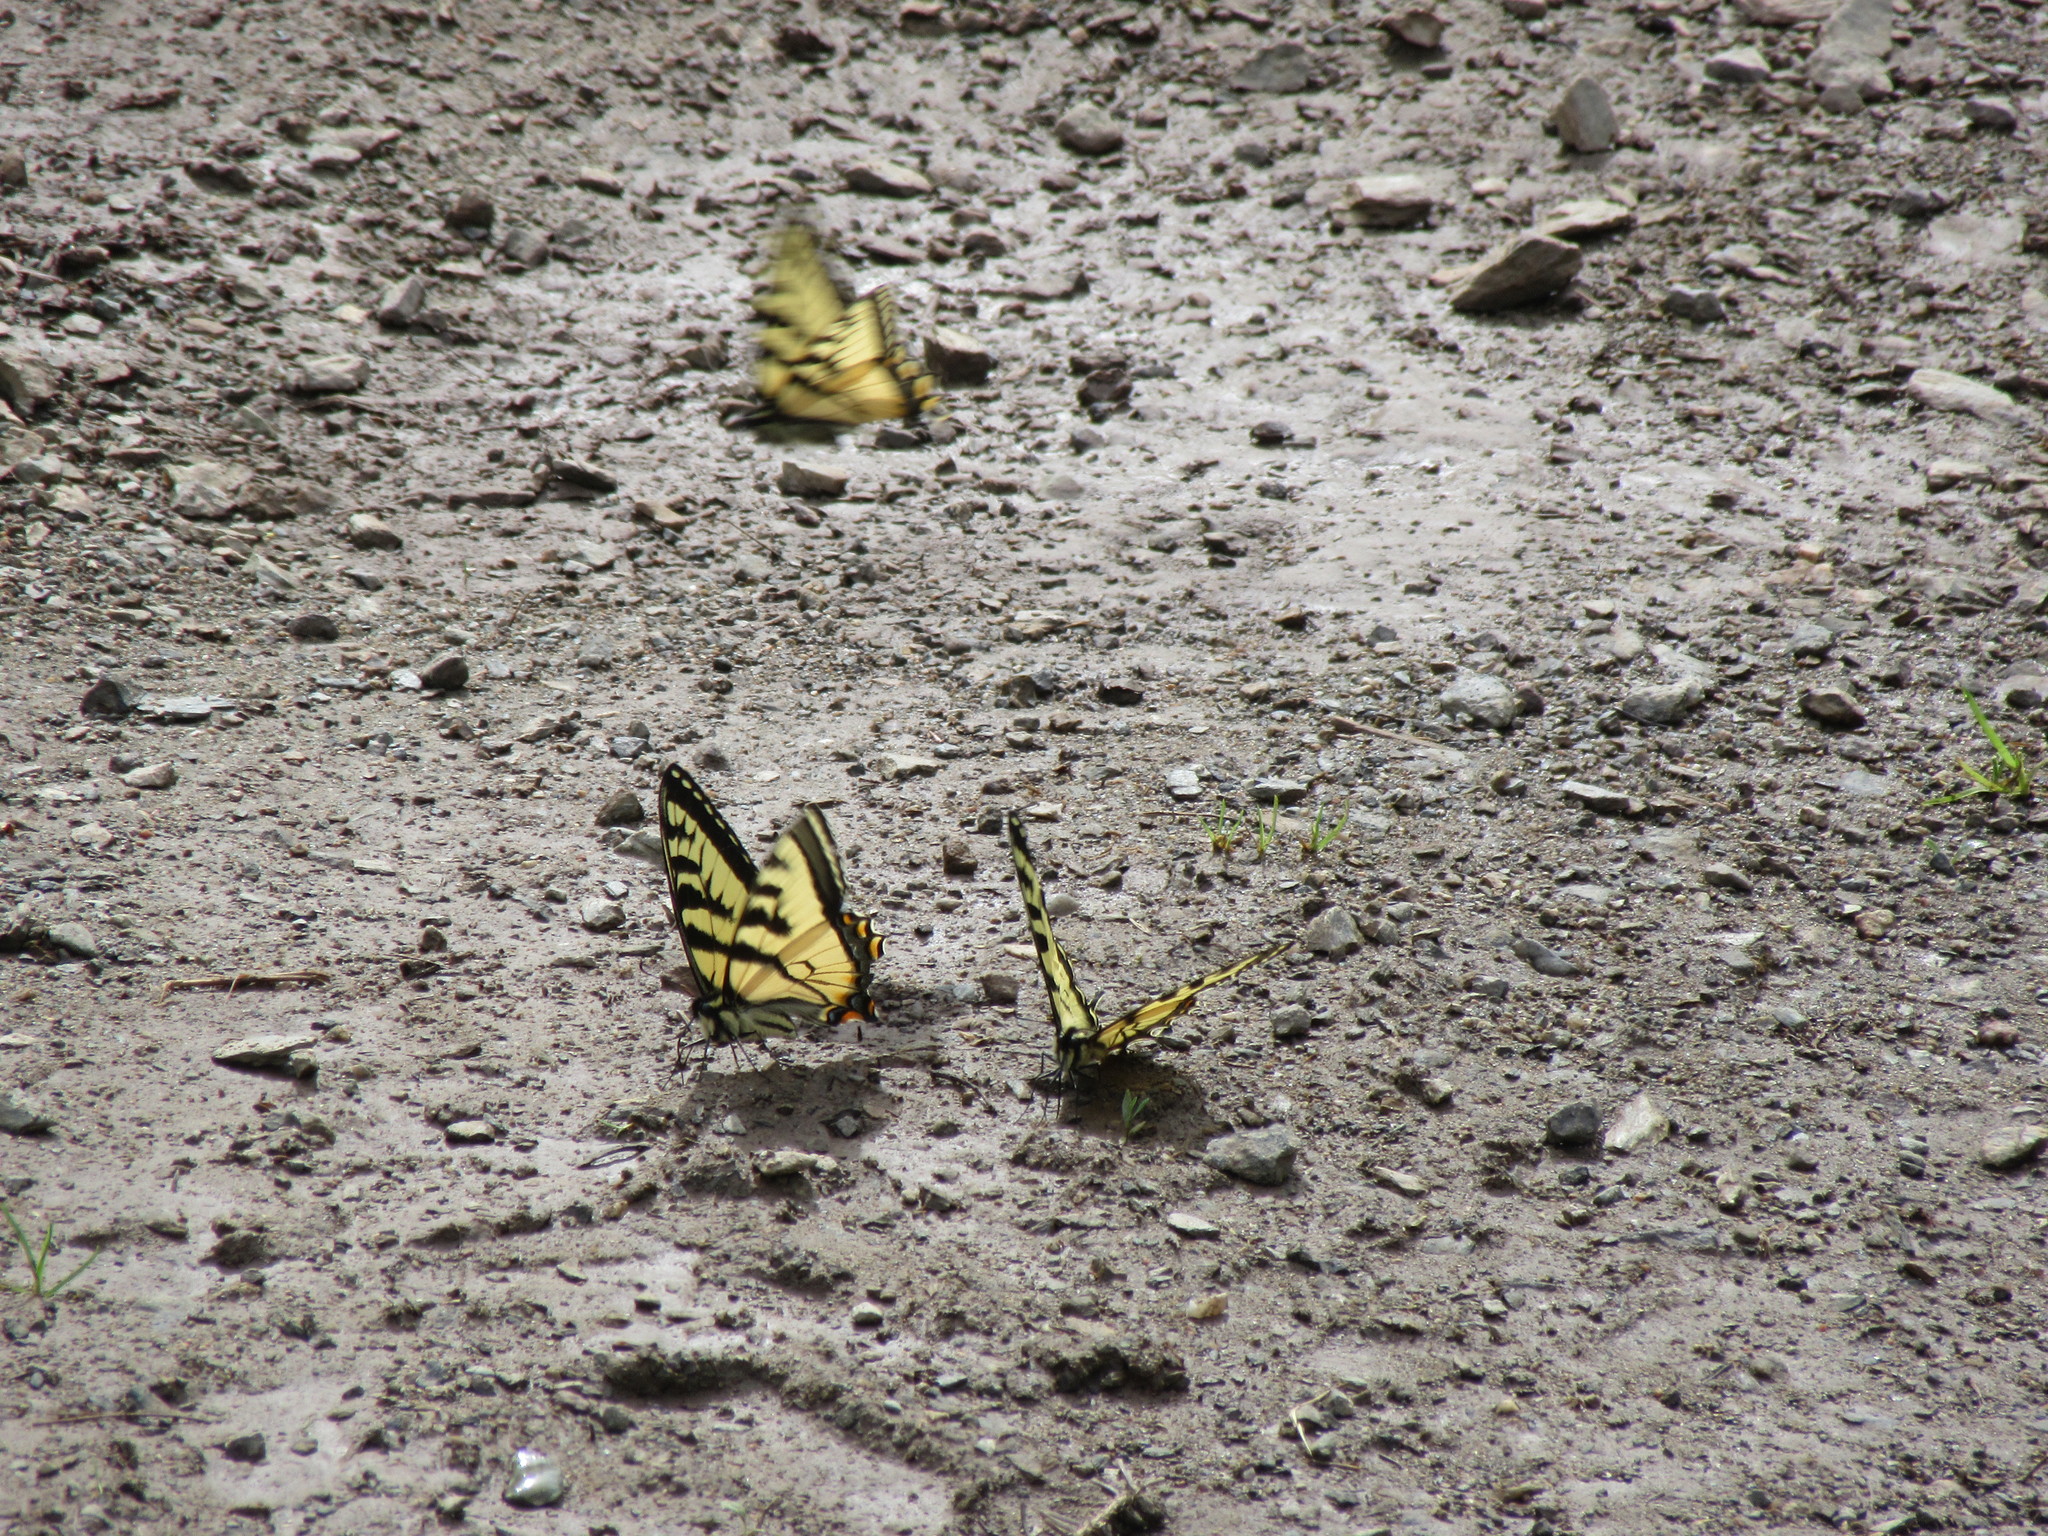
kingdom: Animalia
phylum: Arthropoda
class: Insecta
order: Lepidoptera
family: Papilionidae
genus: Papilio
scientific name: Papilio canadensis
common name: Canadian tiger swallowtail
